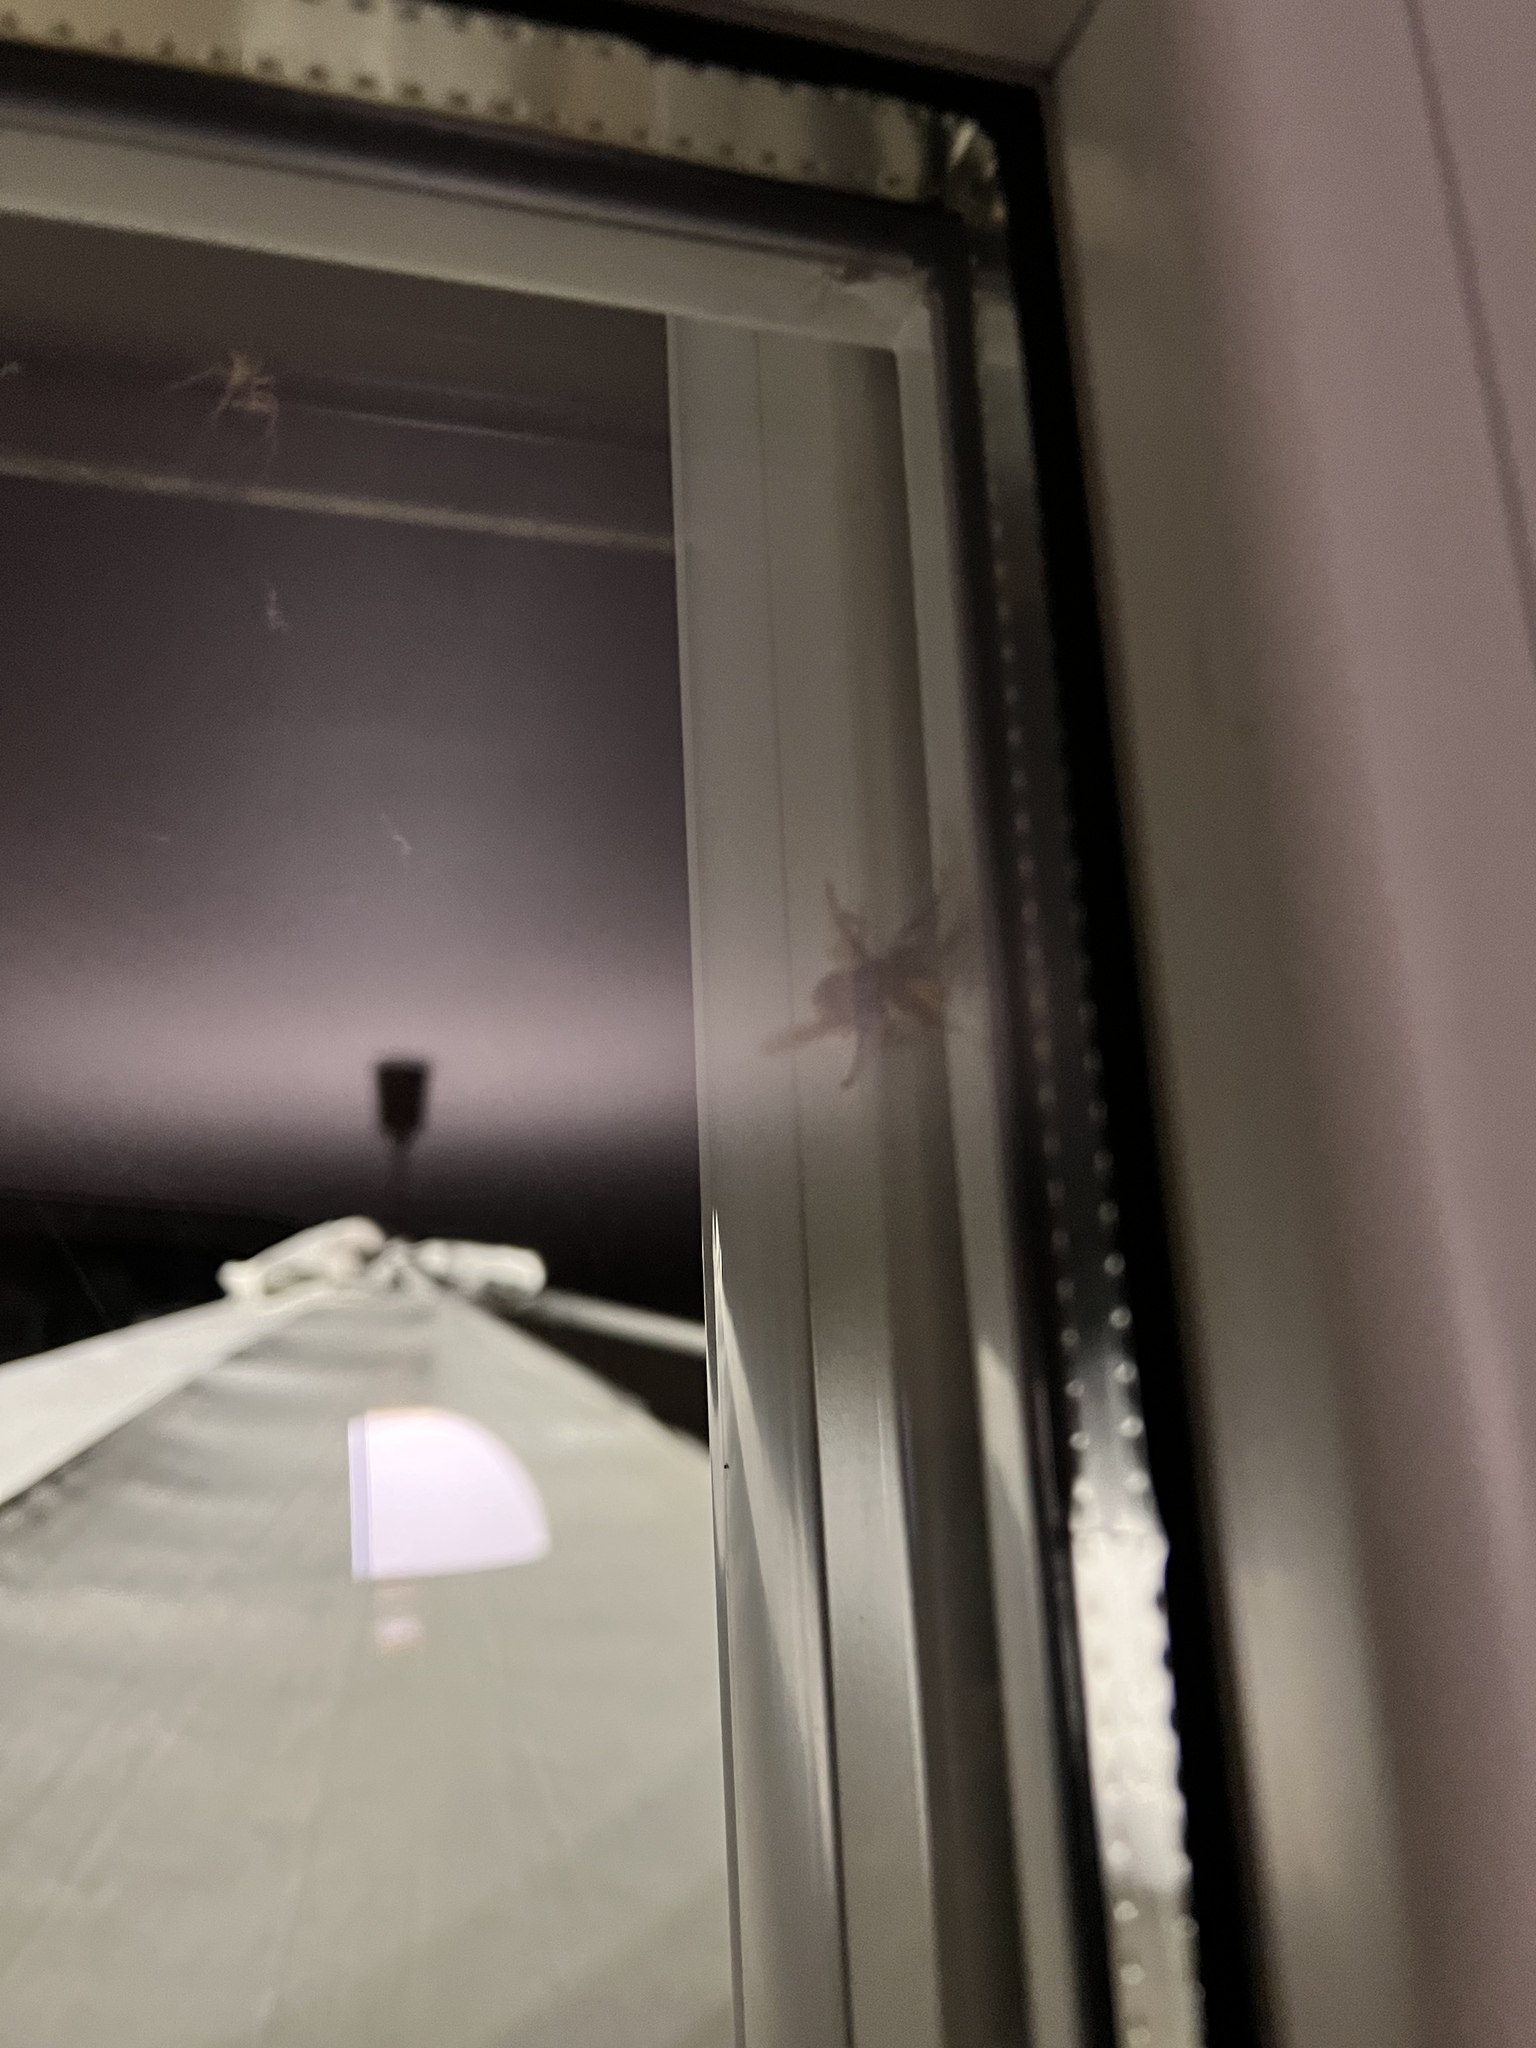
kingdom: Animalia
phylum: Arthropoda
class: Insecta
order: Hymenoptera
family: Vespidae
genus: Vespa
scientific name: Vespa crabro
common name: Hornet
